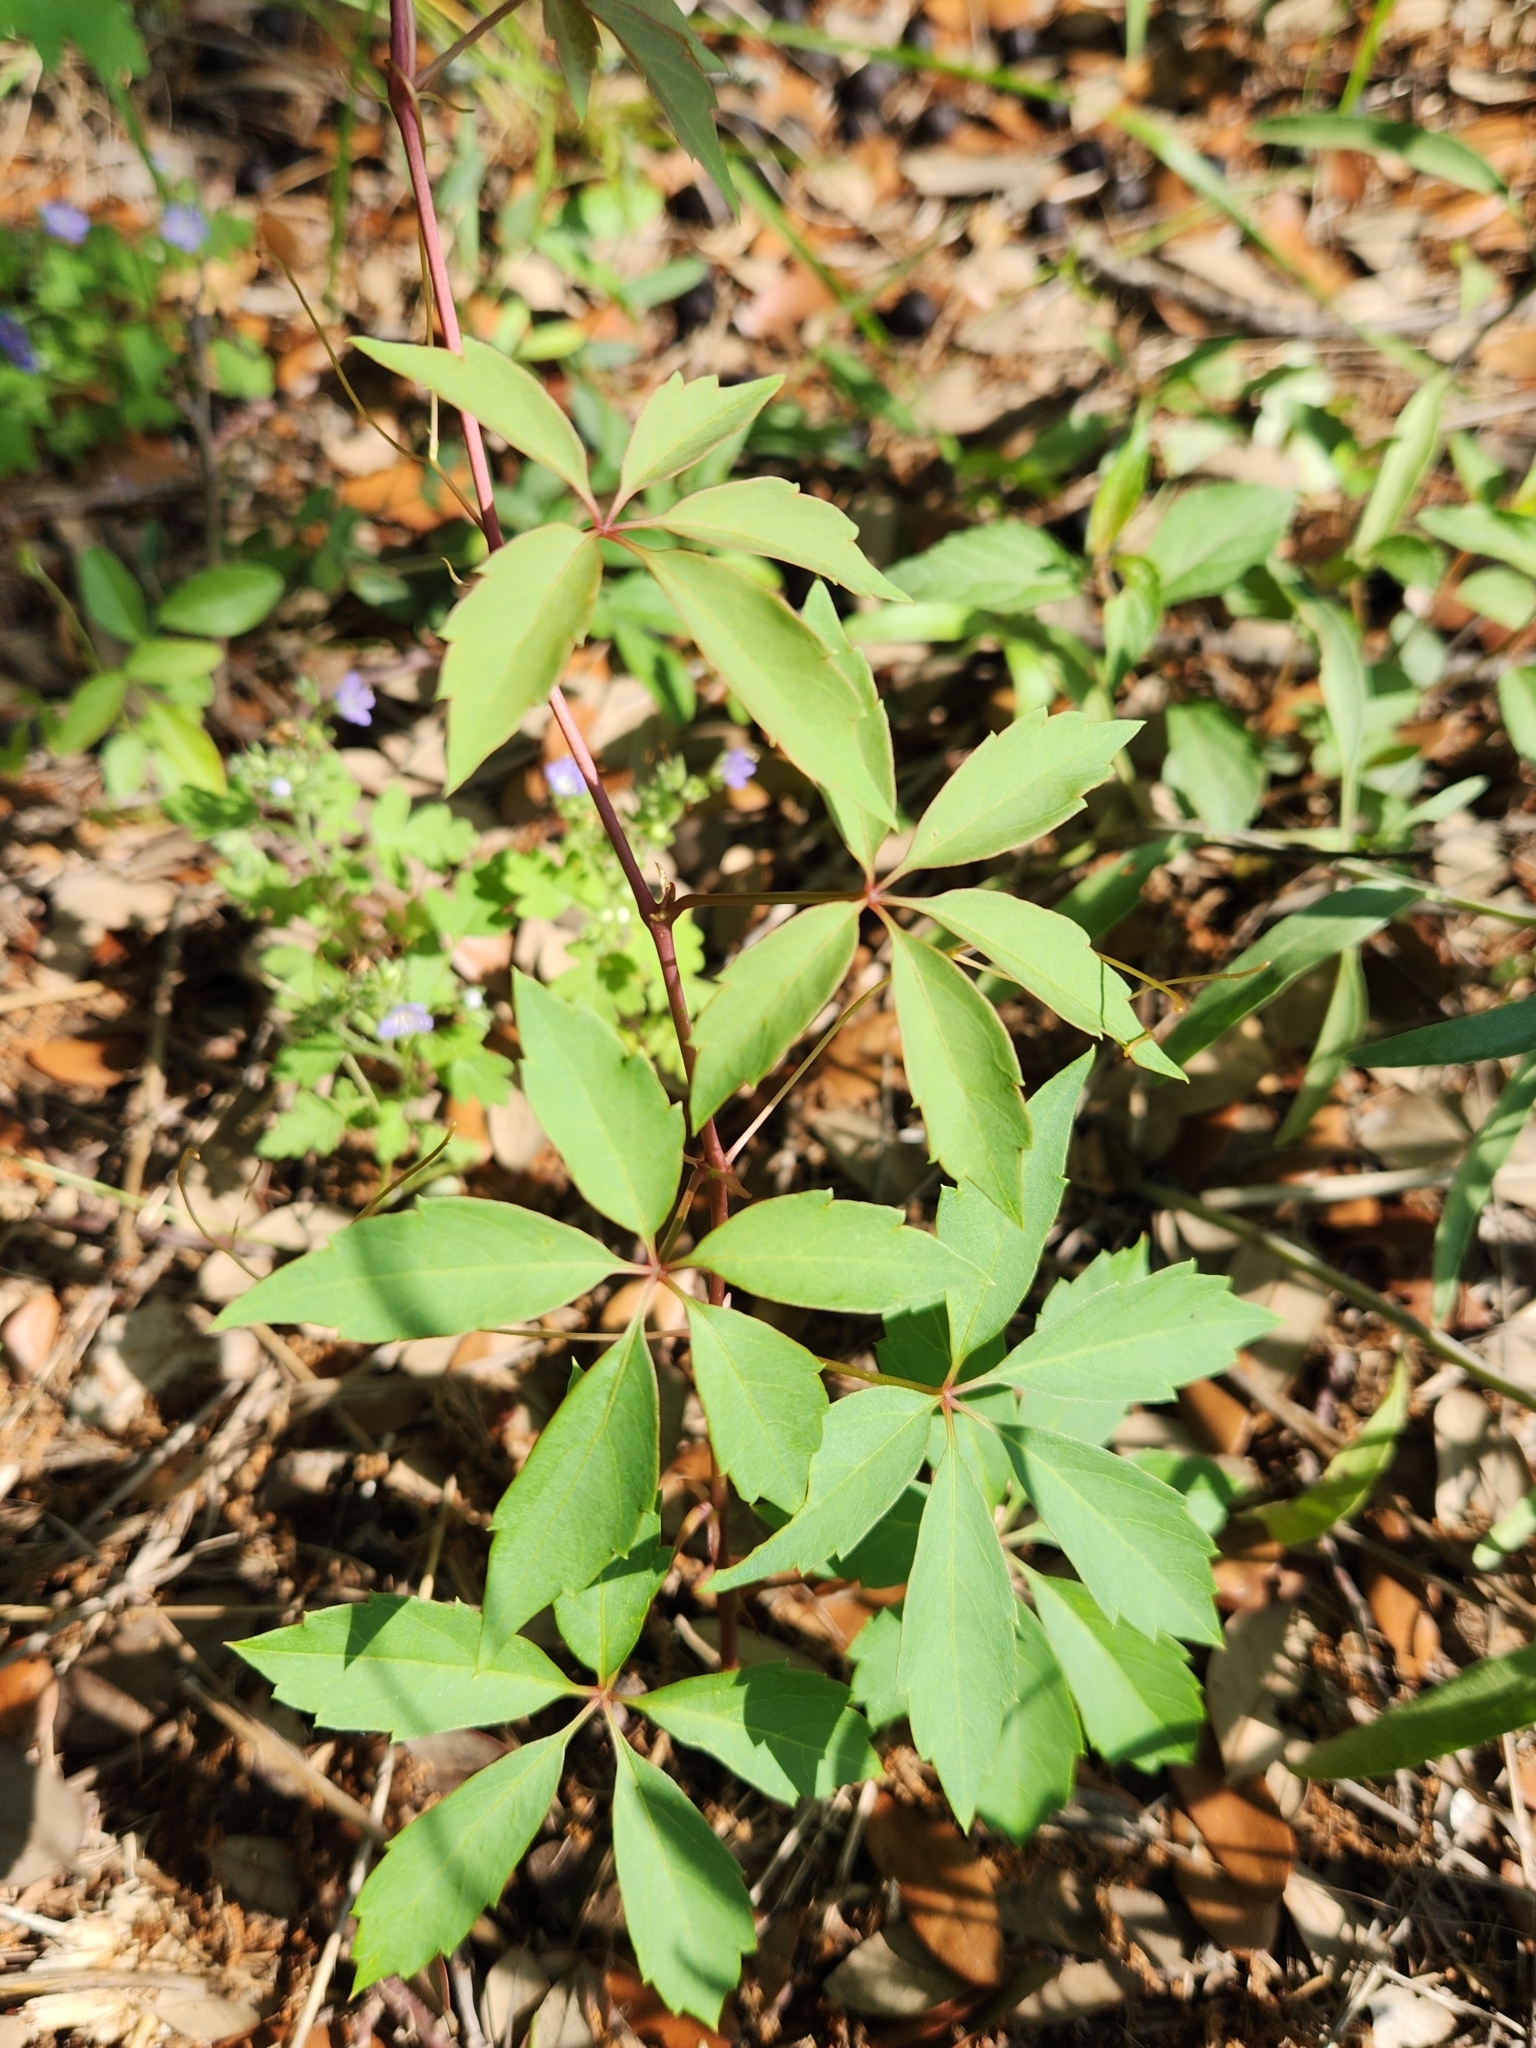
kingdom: Plantae
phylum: Tracheophyta
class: Magnoliopsida
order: Vitales
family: Vitaceae
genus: Parthenocissus
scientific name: Parthenocissus quinquefolia
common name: Virginia-creeper
